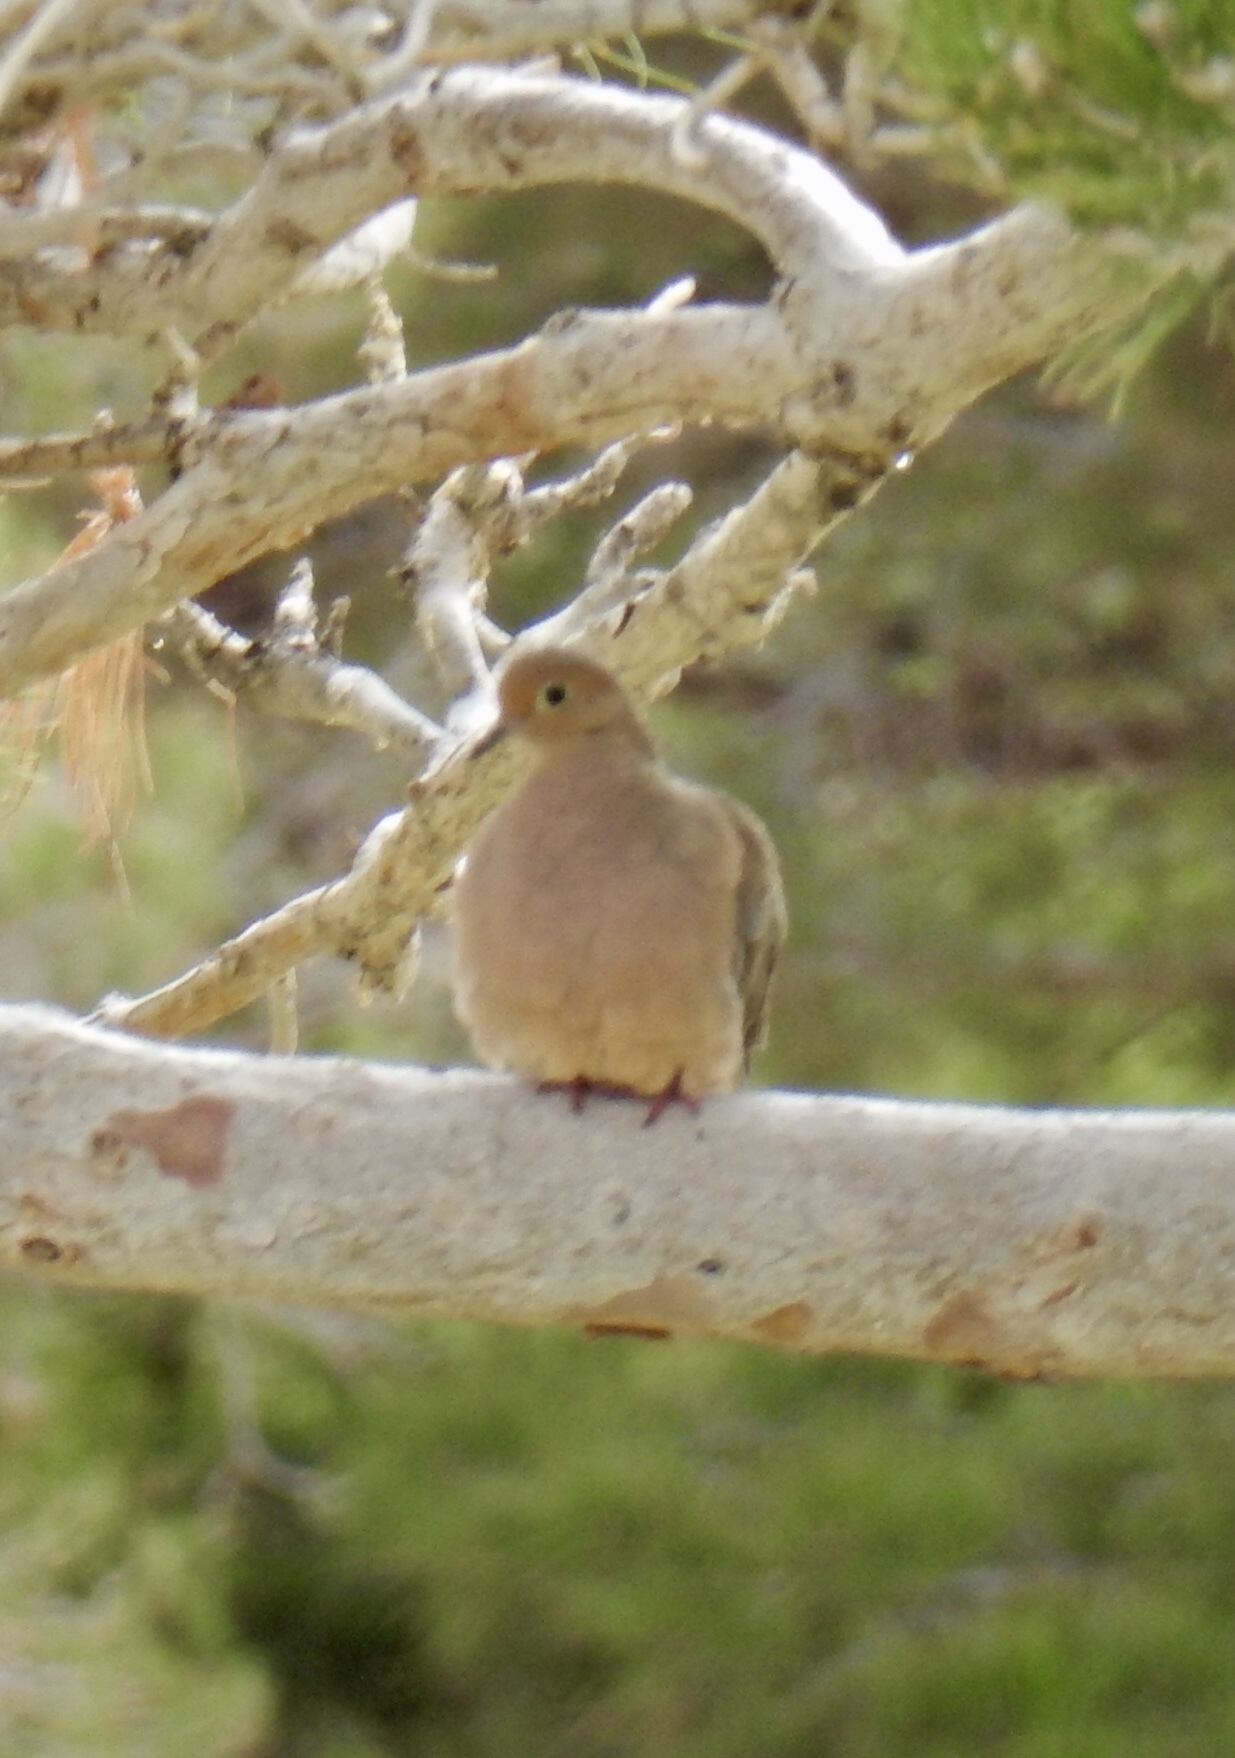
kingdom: Animalia
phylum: Chordata
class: Aves
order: Columbiformes
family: Columbidae
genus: Zenaida
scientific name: Zenaida macroura
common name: Mourning dove
